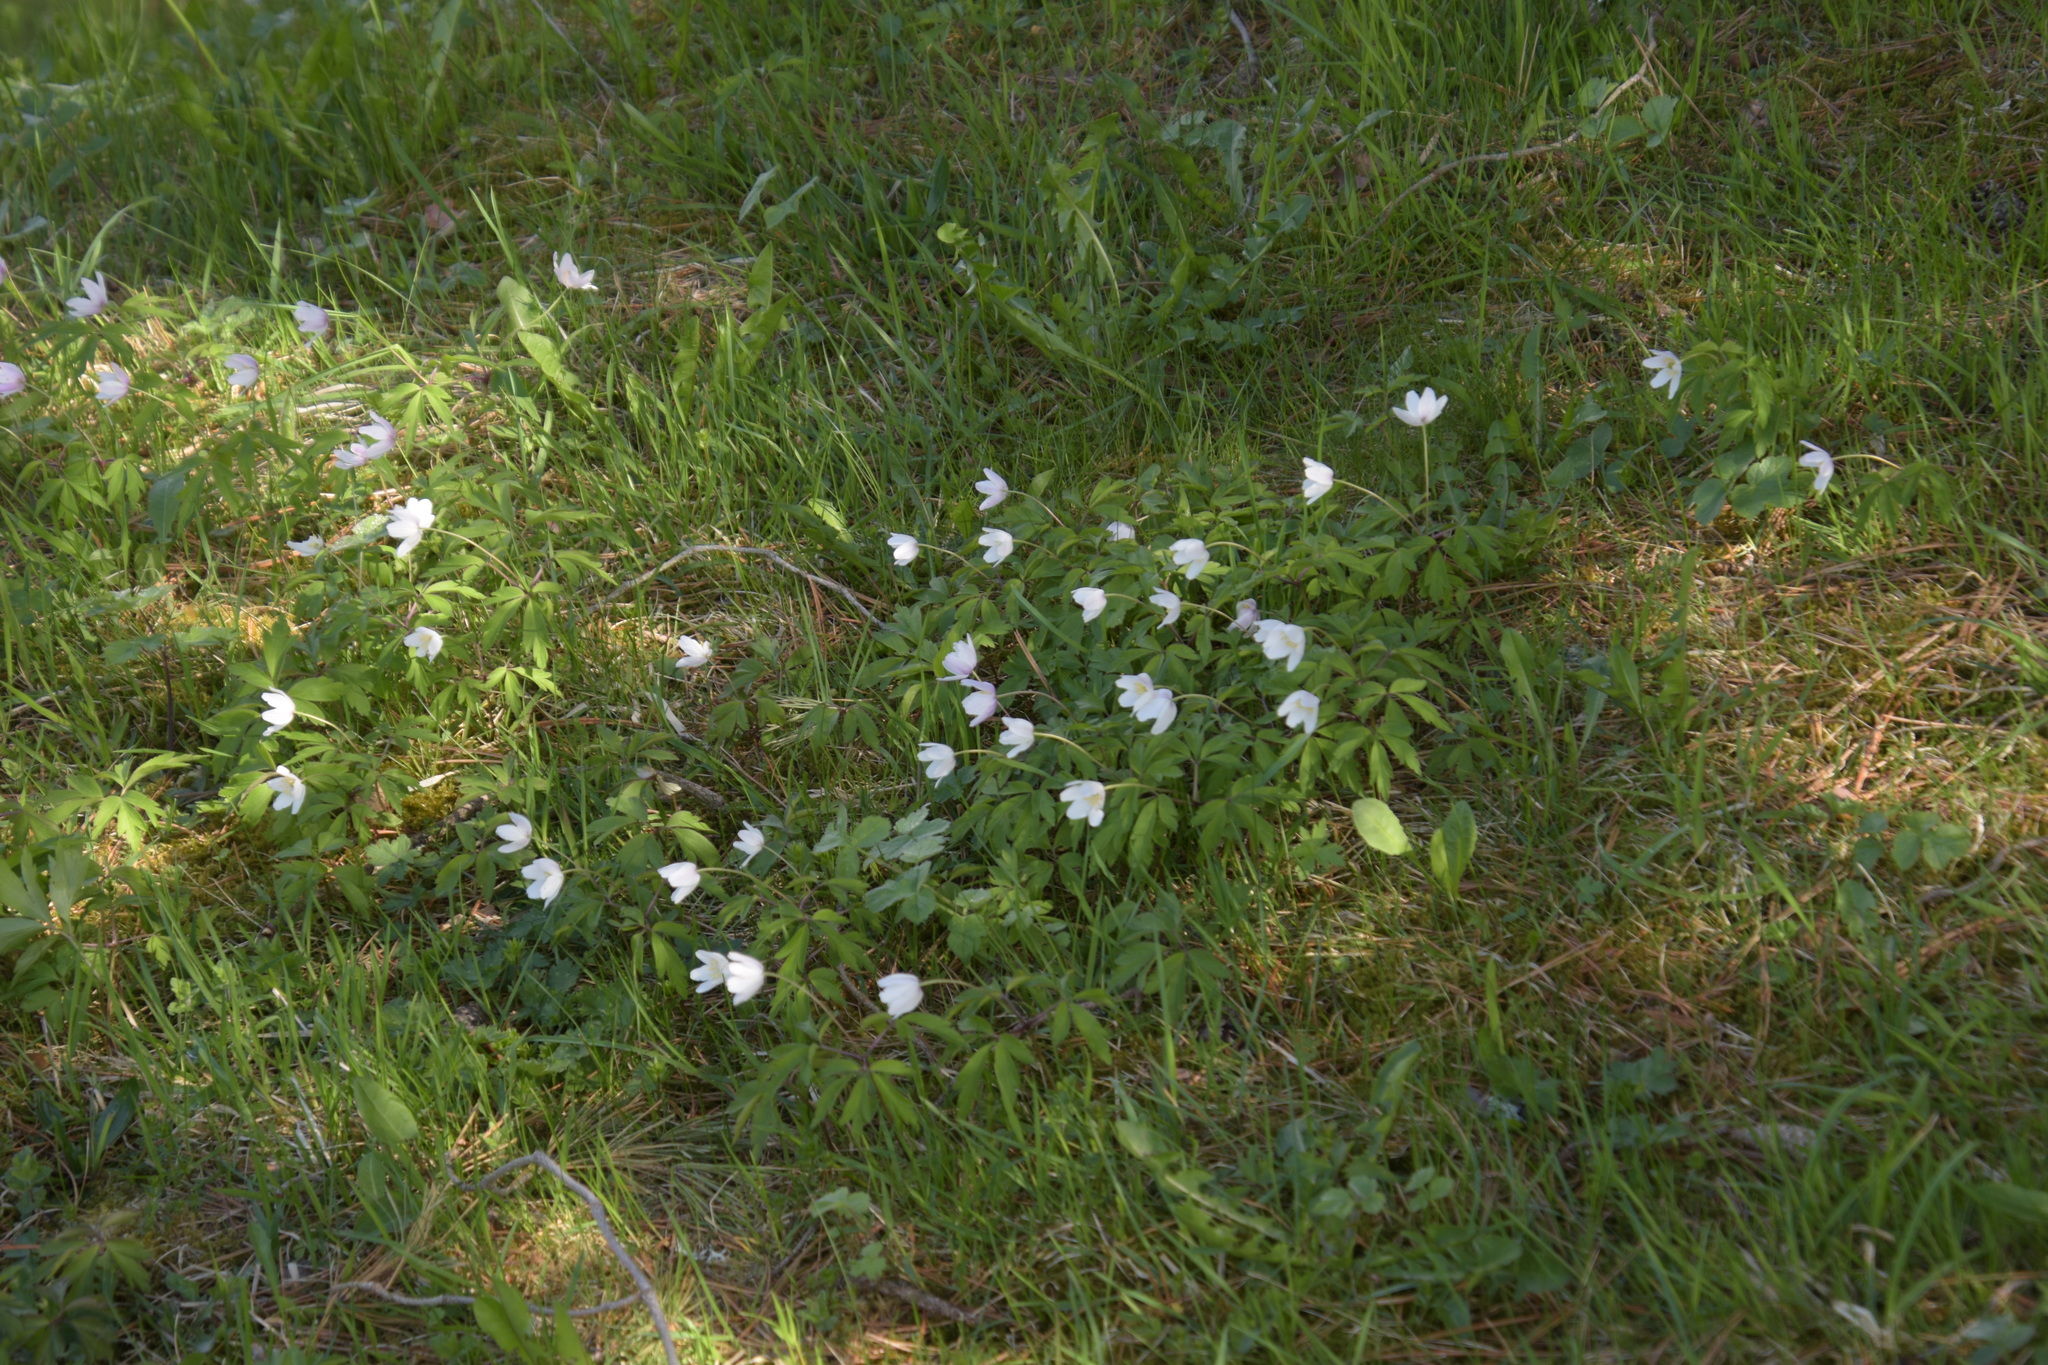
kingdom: Plantae
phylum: Tracheophyta
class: Magnoliopsida
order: Ranunculales
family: Ranunculaceae
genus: Anemone
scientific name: Anemone nemorosa
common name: Wood anemone
